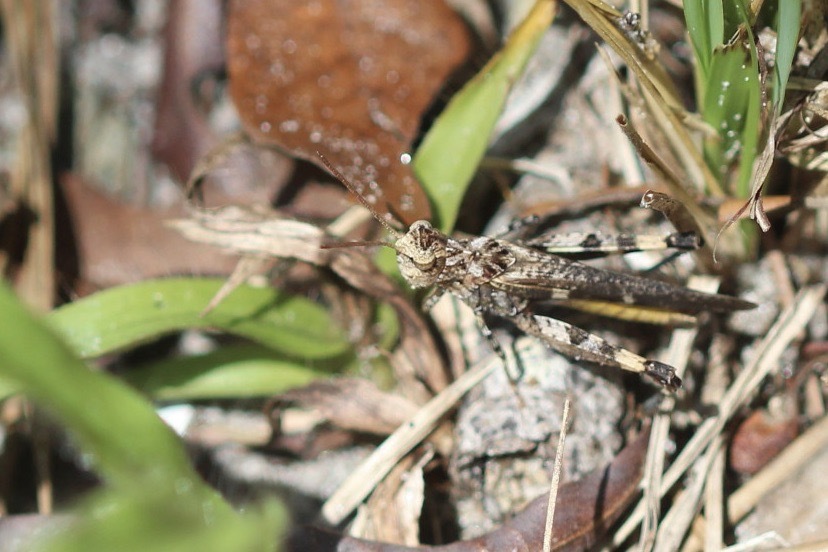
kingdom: Animalia
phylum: Arthropoda
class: Insecta
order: Orthoptera
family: Acrididae
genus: Chortophaga
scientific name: Chortophaga australior
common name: Southern green-striped grasshopper
